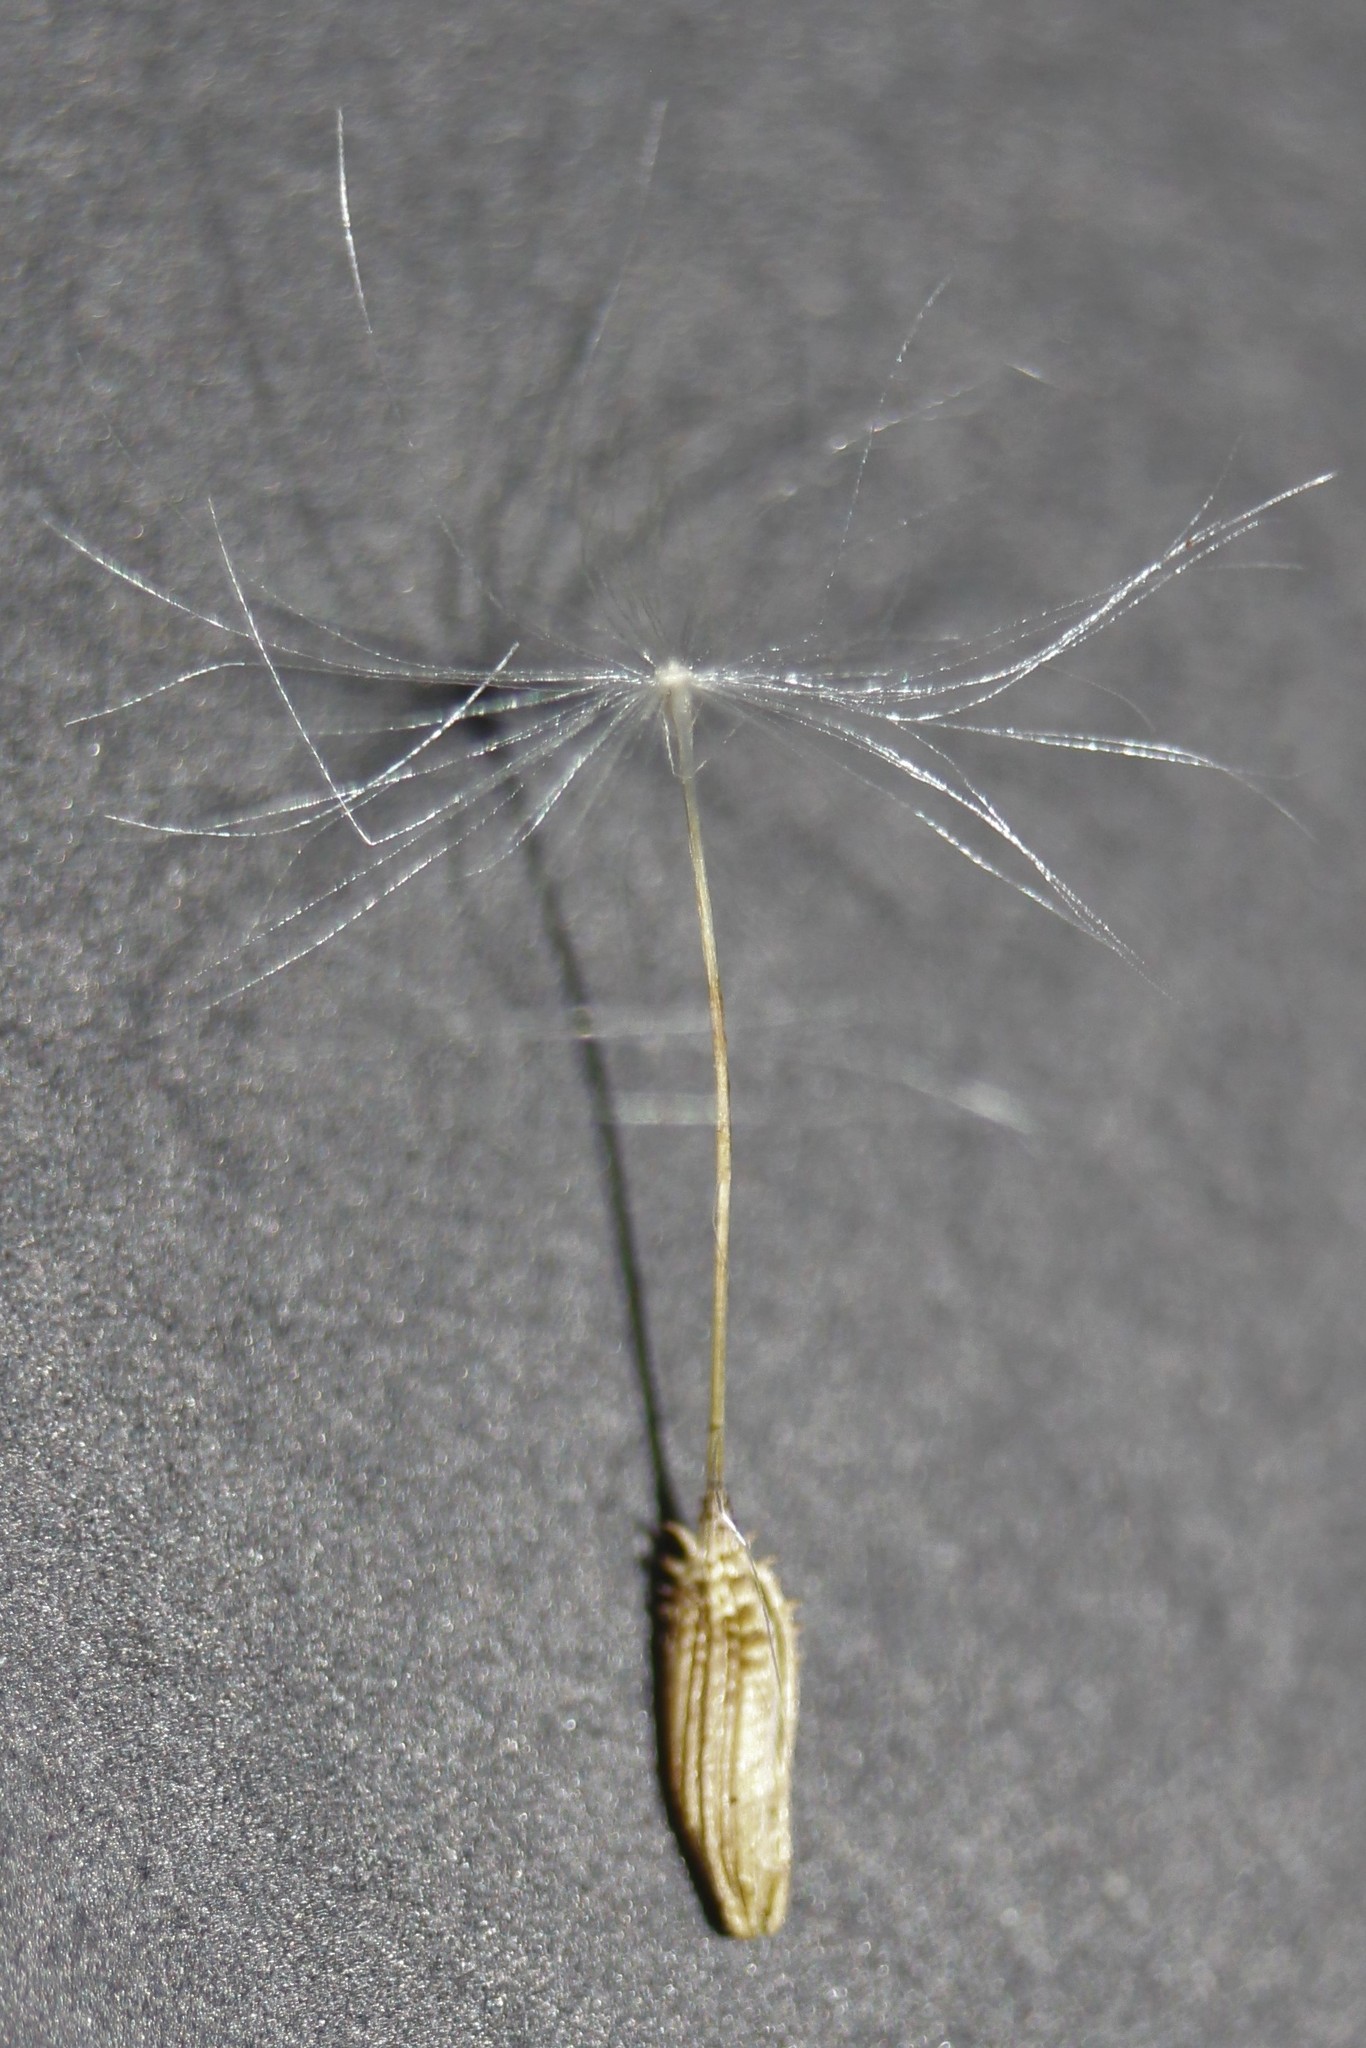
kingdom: Plantae
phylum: Tracheophyta
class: Magnoliopsida
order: Asterales
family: Asteraceae
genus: Taraxacum
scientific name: Taraxacum officinale
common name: Common dandelion
